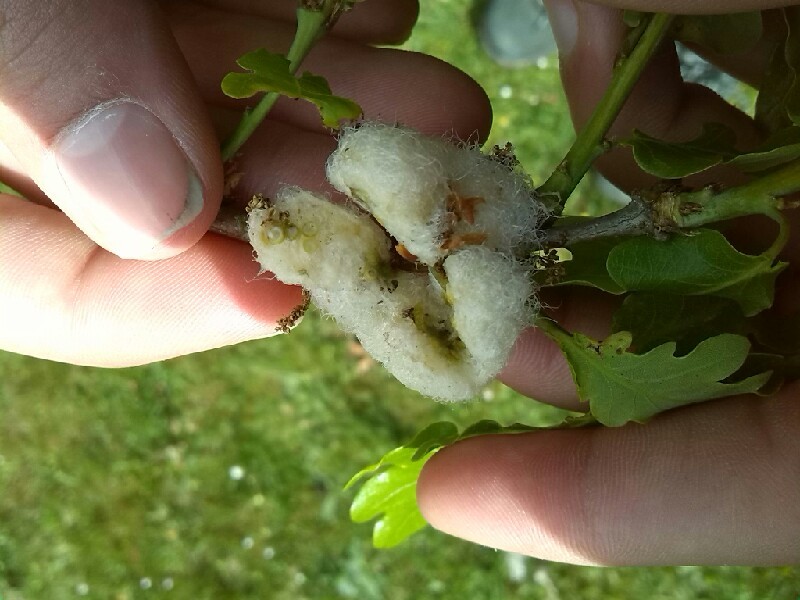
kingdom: Animalia
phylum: Arthropoda
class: Insecta
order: Hymenoptera
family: Cynipidae
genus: Andricus
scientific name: Andricus quercusramuli
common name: Cottonwool gall
